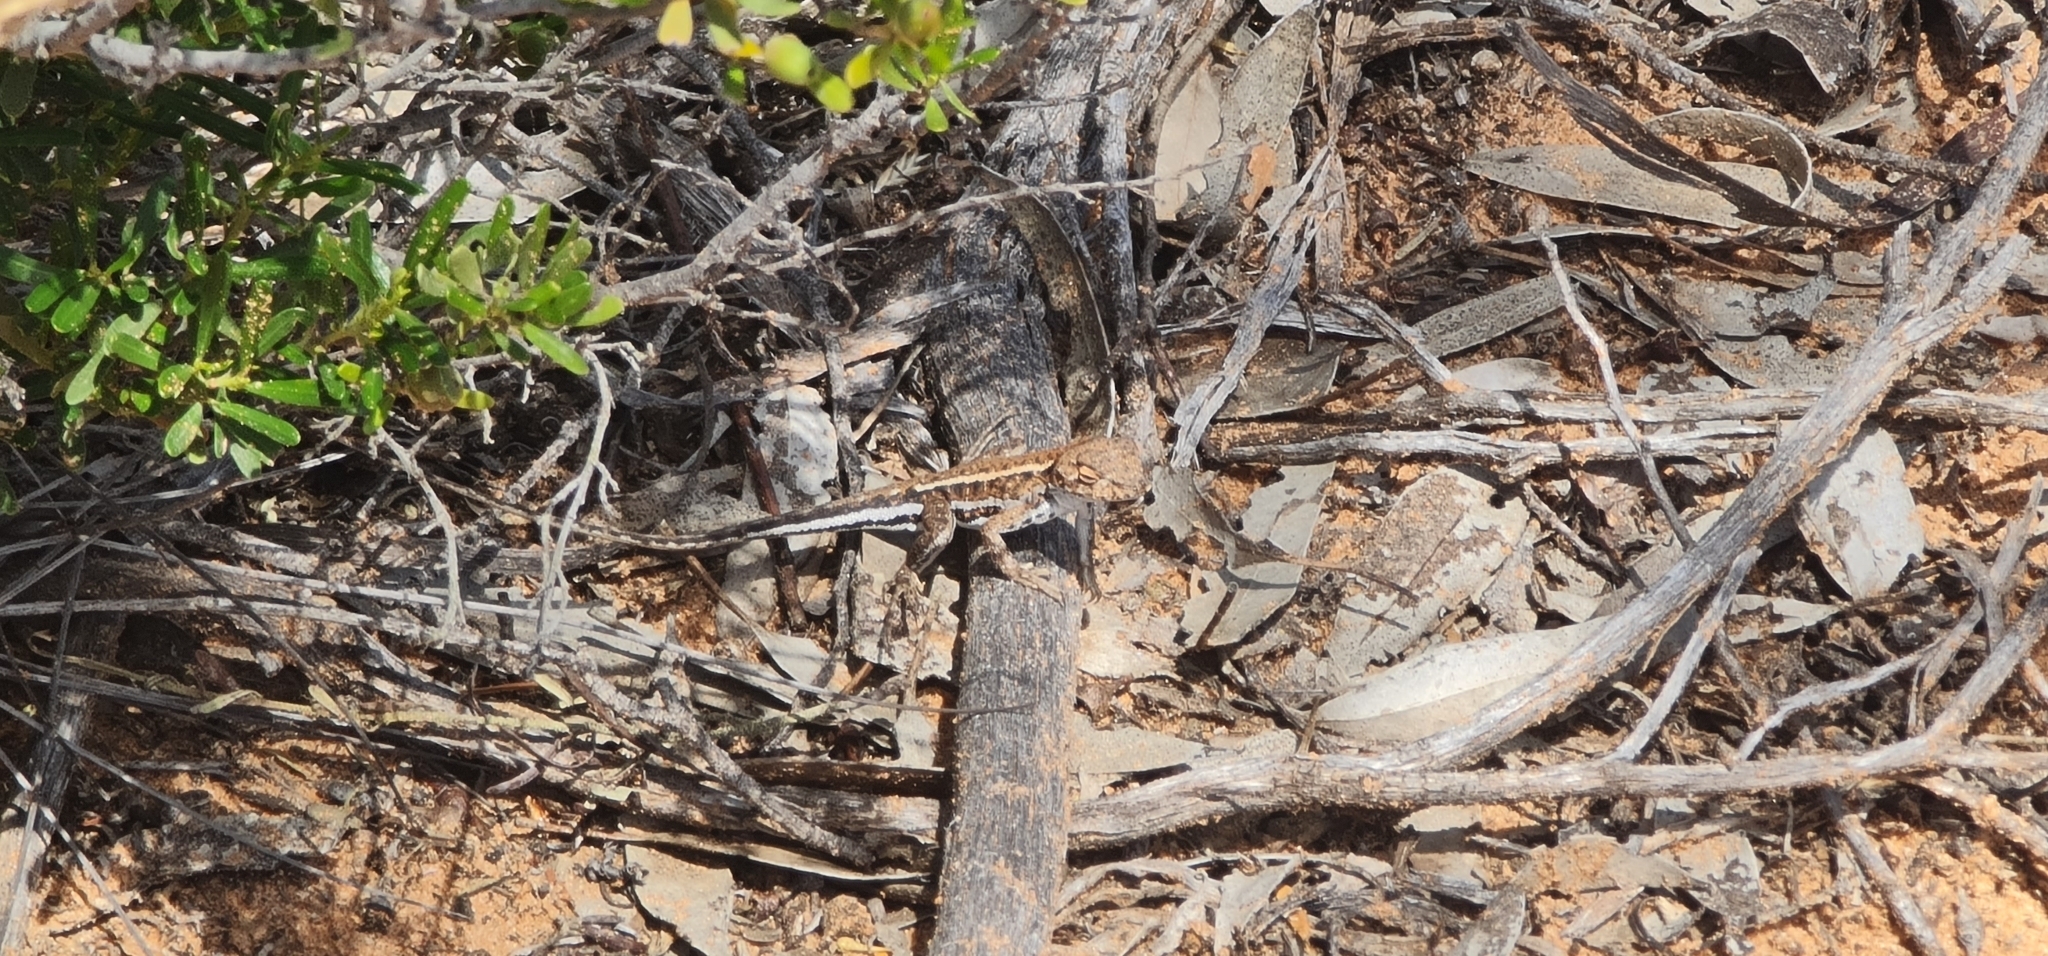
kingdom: Animalia
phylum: Chordata
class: Squamata
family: Agamidae
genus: Ctenophorus
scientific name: Ctenophorus spinodomus
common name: Eastern mallee dragon
